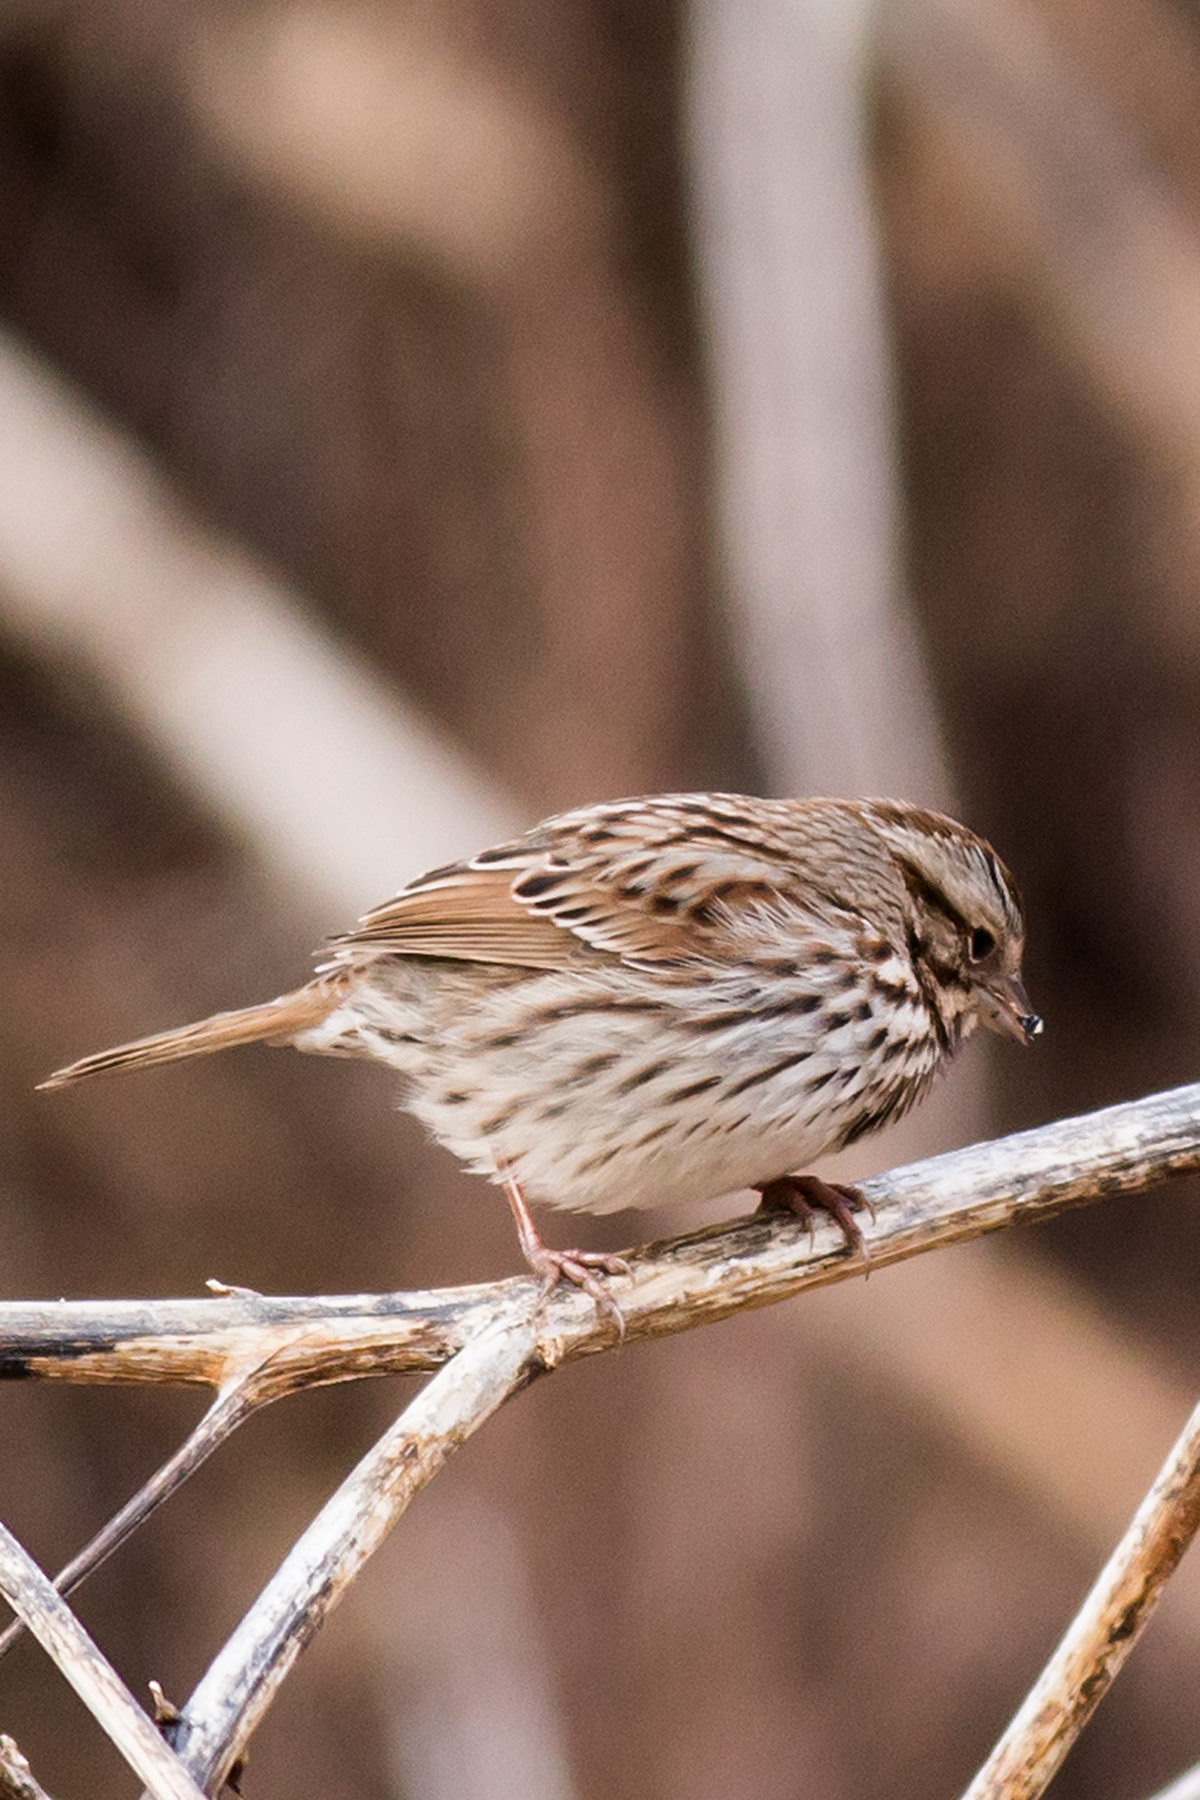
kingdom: Animalia
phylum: Chordata
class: Aves
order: Passeriformes
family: Passerellidae
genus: Melospiza
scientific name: Melospiza melodia
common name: Song sparrow
